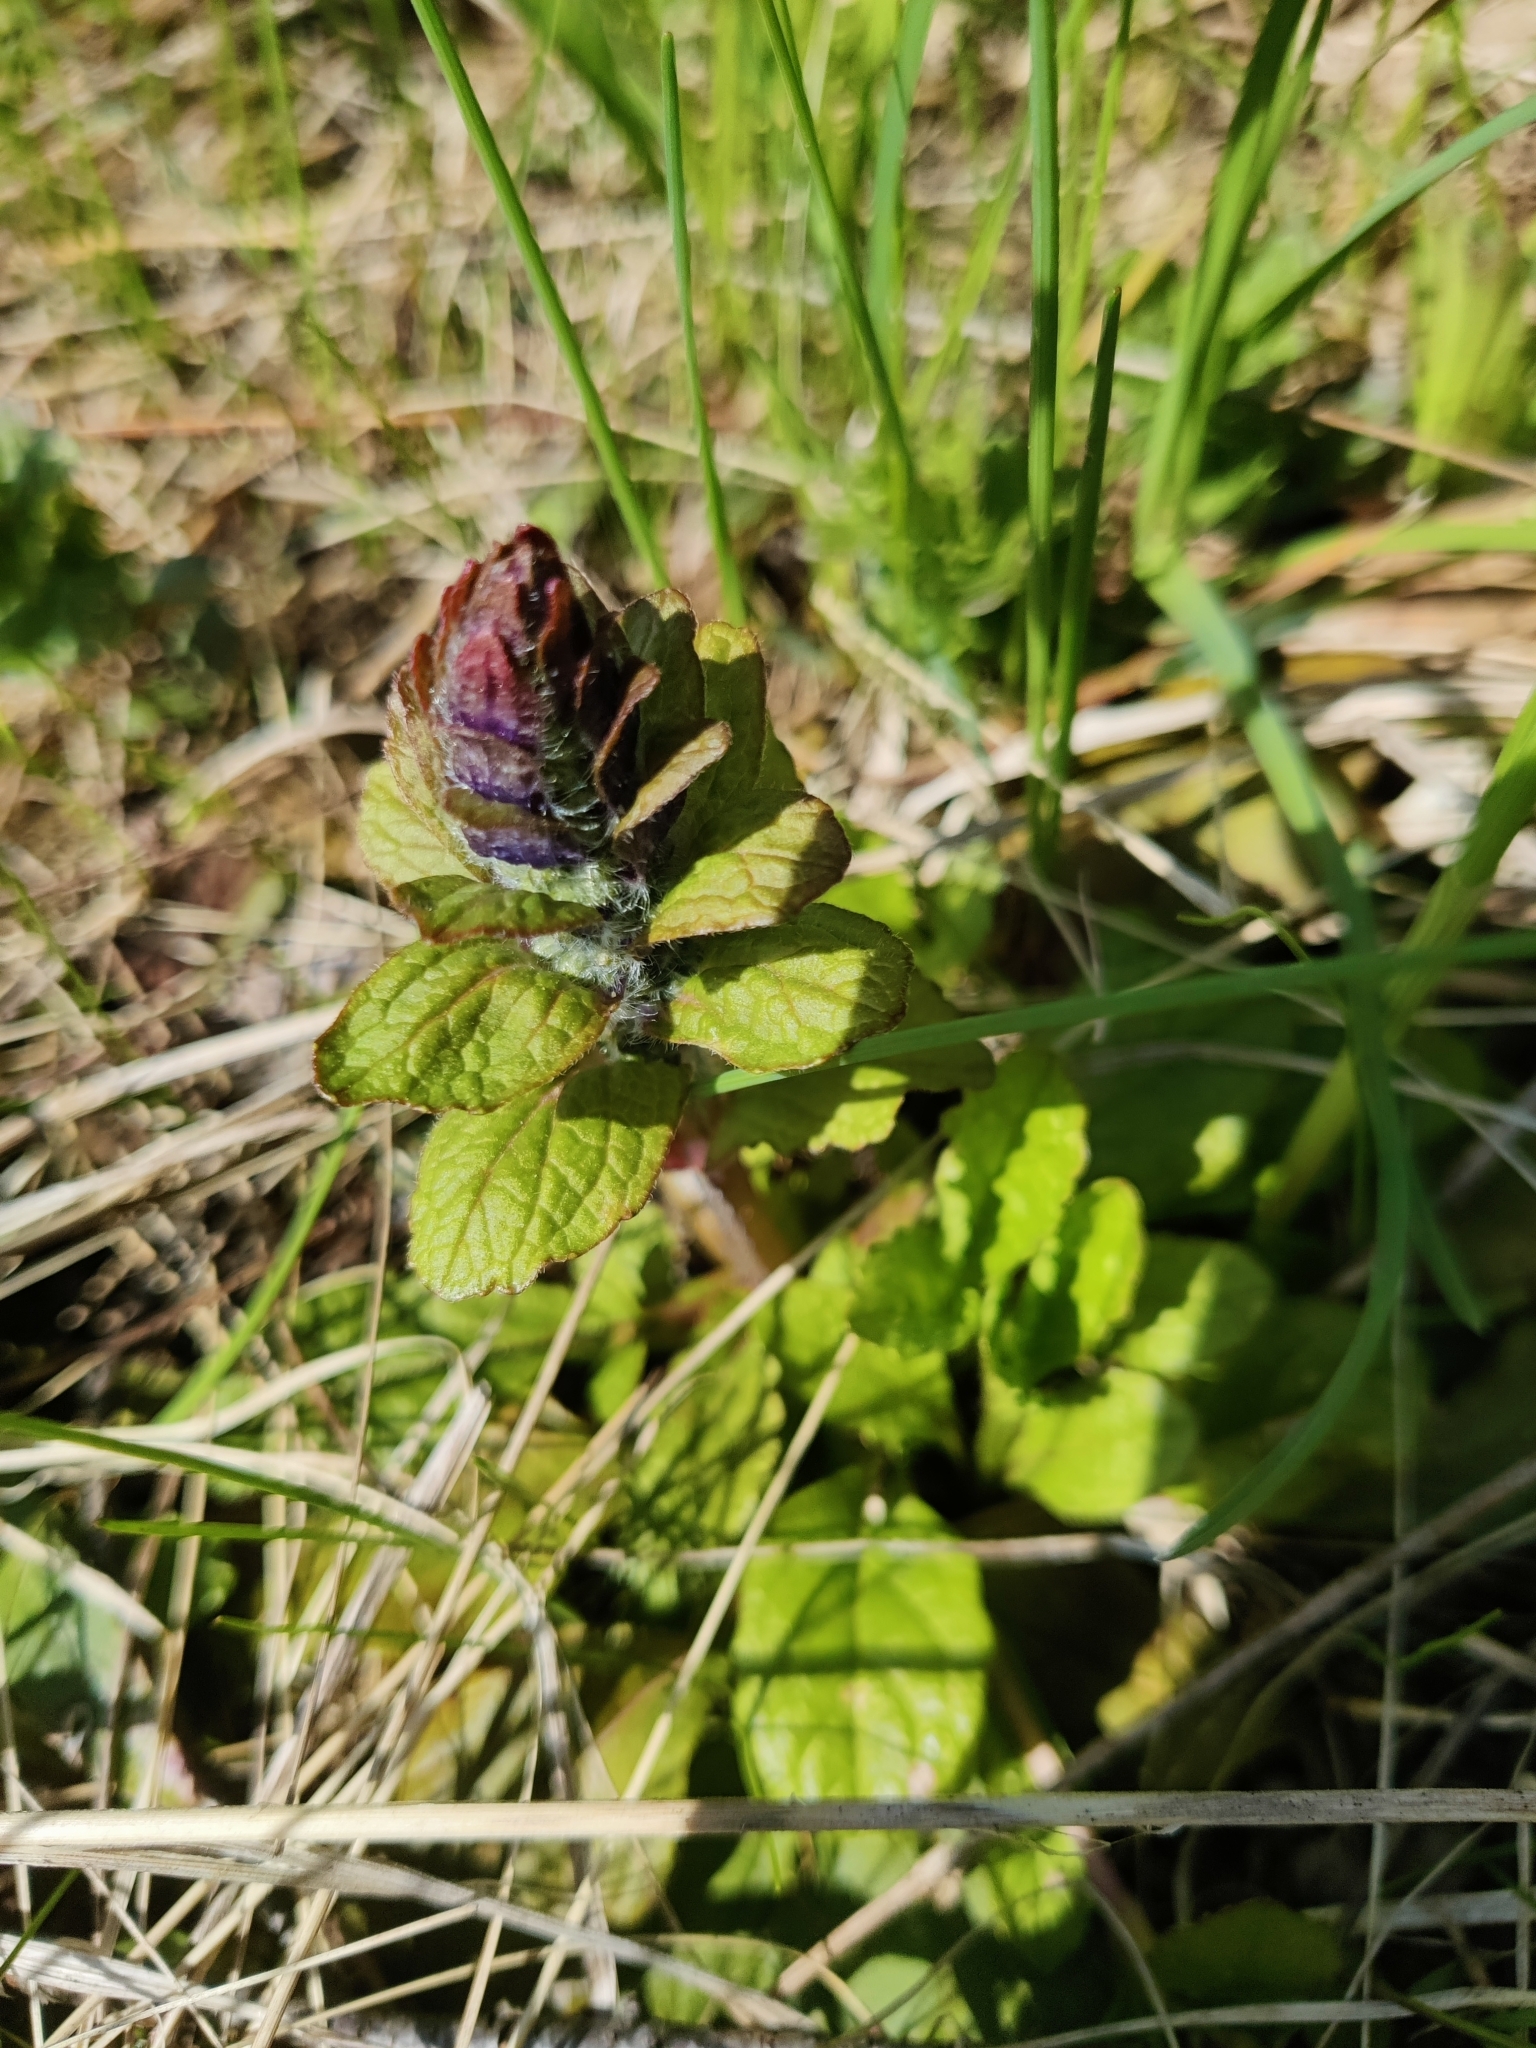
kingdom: Plantae
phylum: Tracheophyta
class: Magnoliopsida
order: Lamiales
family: Lamiaceae
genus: Ajuga
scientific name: Ajuga reptans
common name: Bugle
